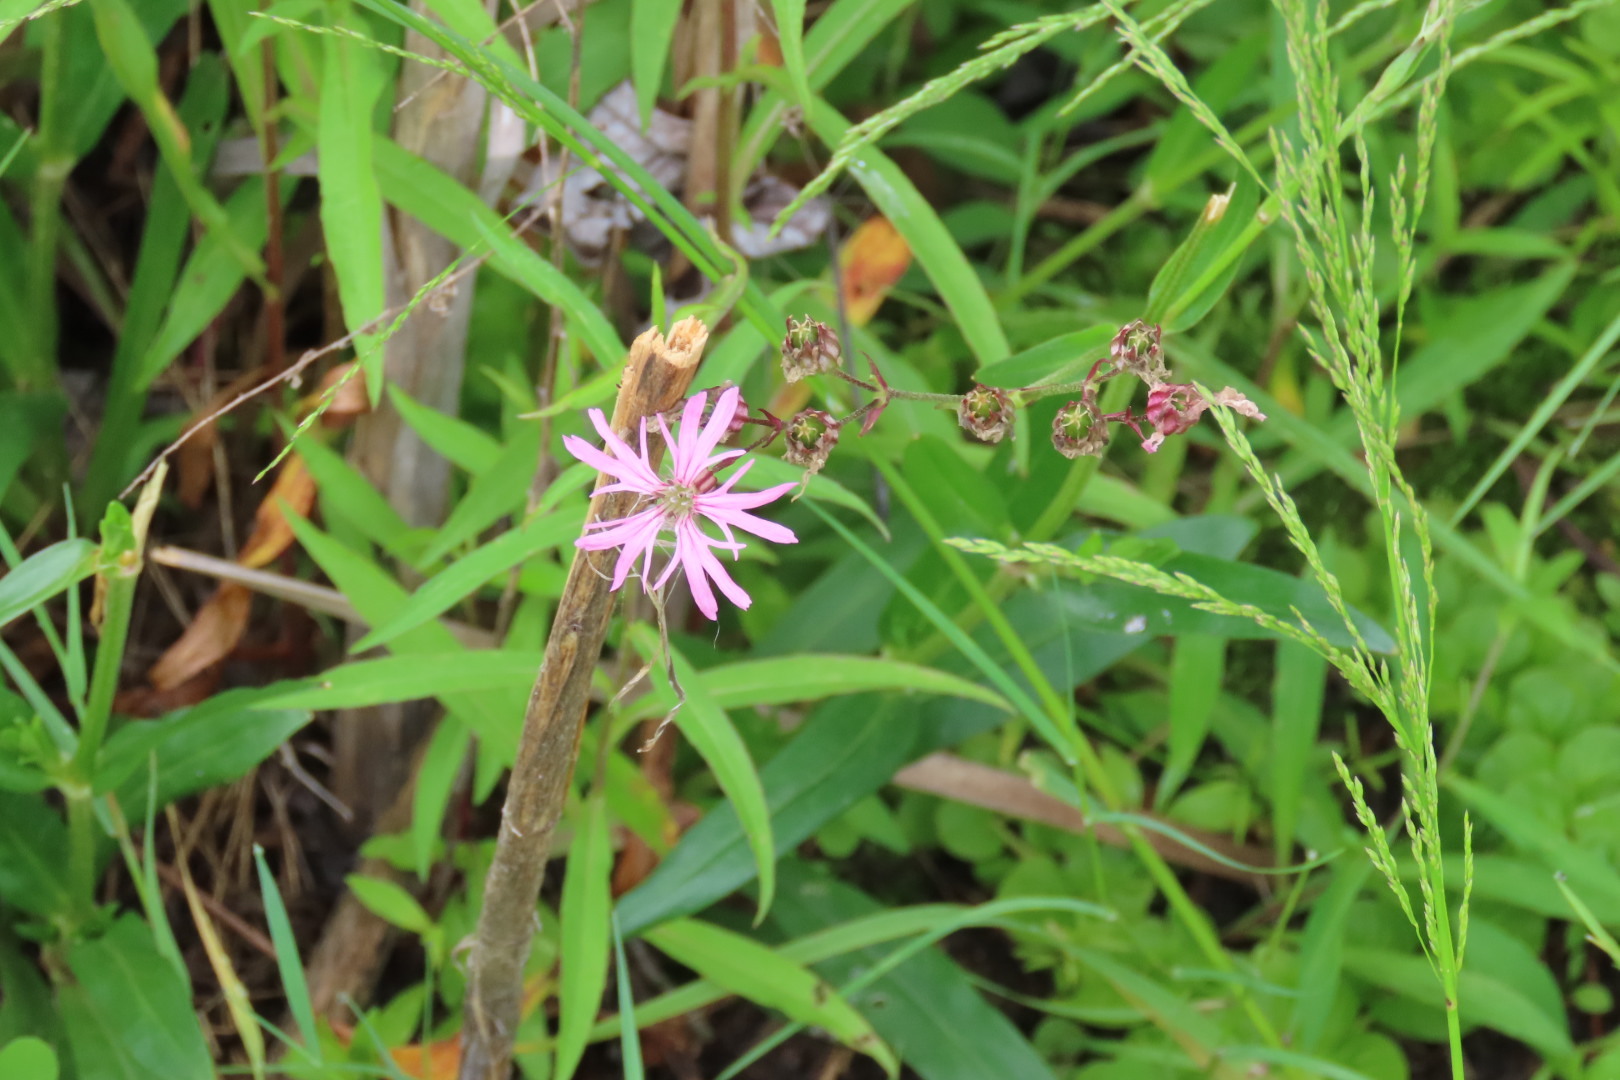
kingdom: Plantae
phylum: Tracheophyta
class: Magnoliopsida
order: Caryophyllales
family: Caryophyllaceae
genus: Silene
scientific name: Silene flos-cuculi
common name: Ragged-robin
